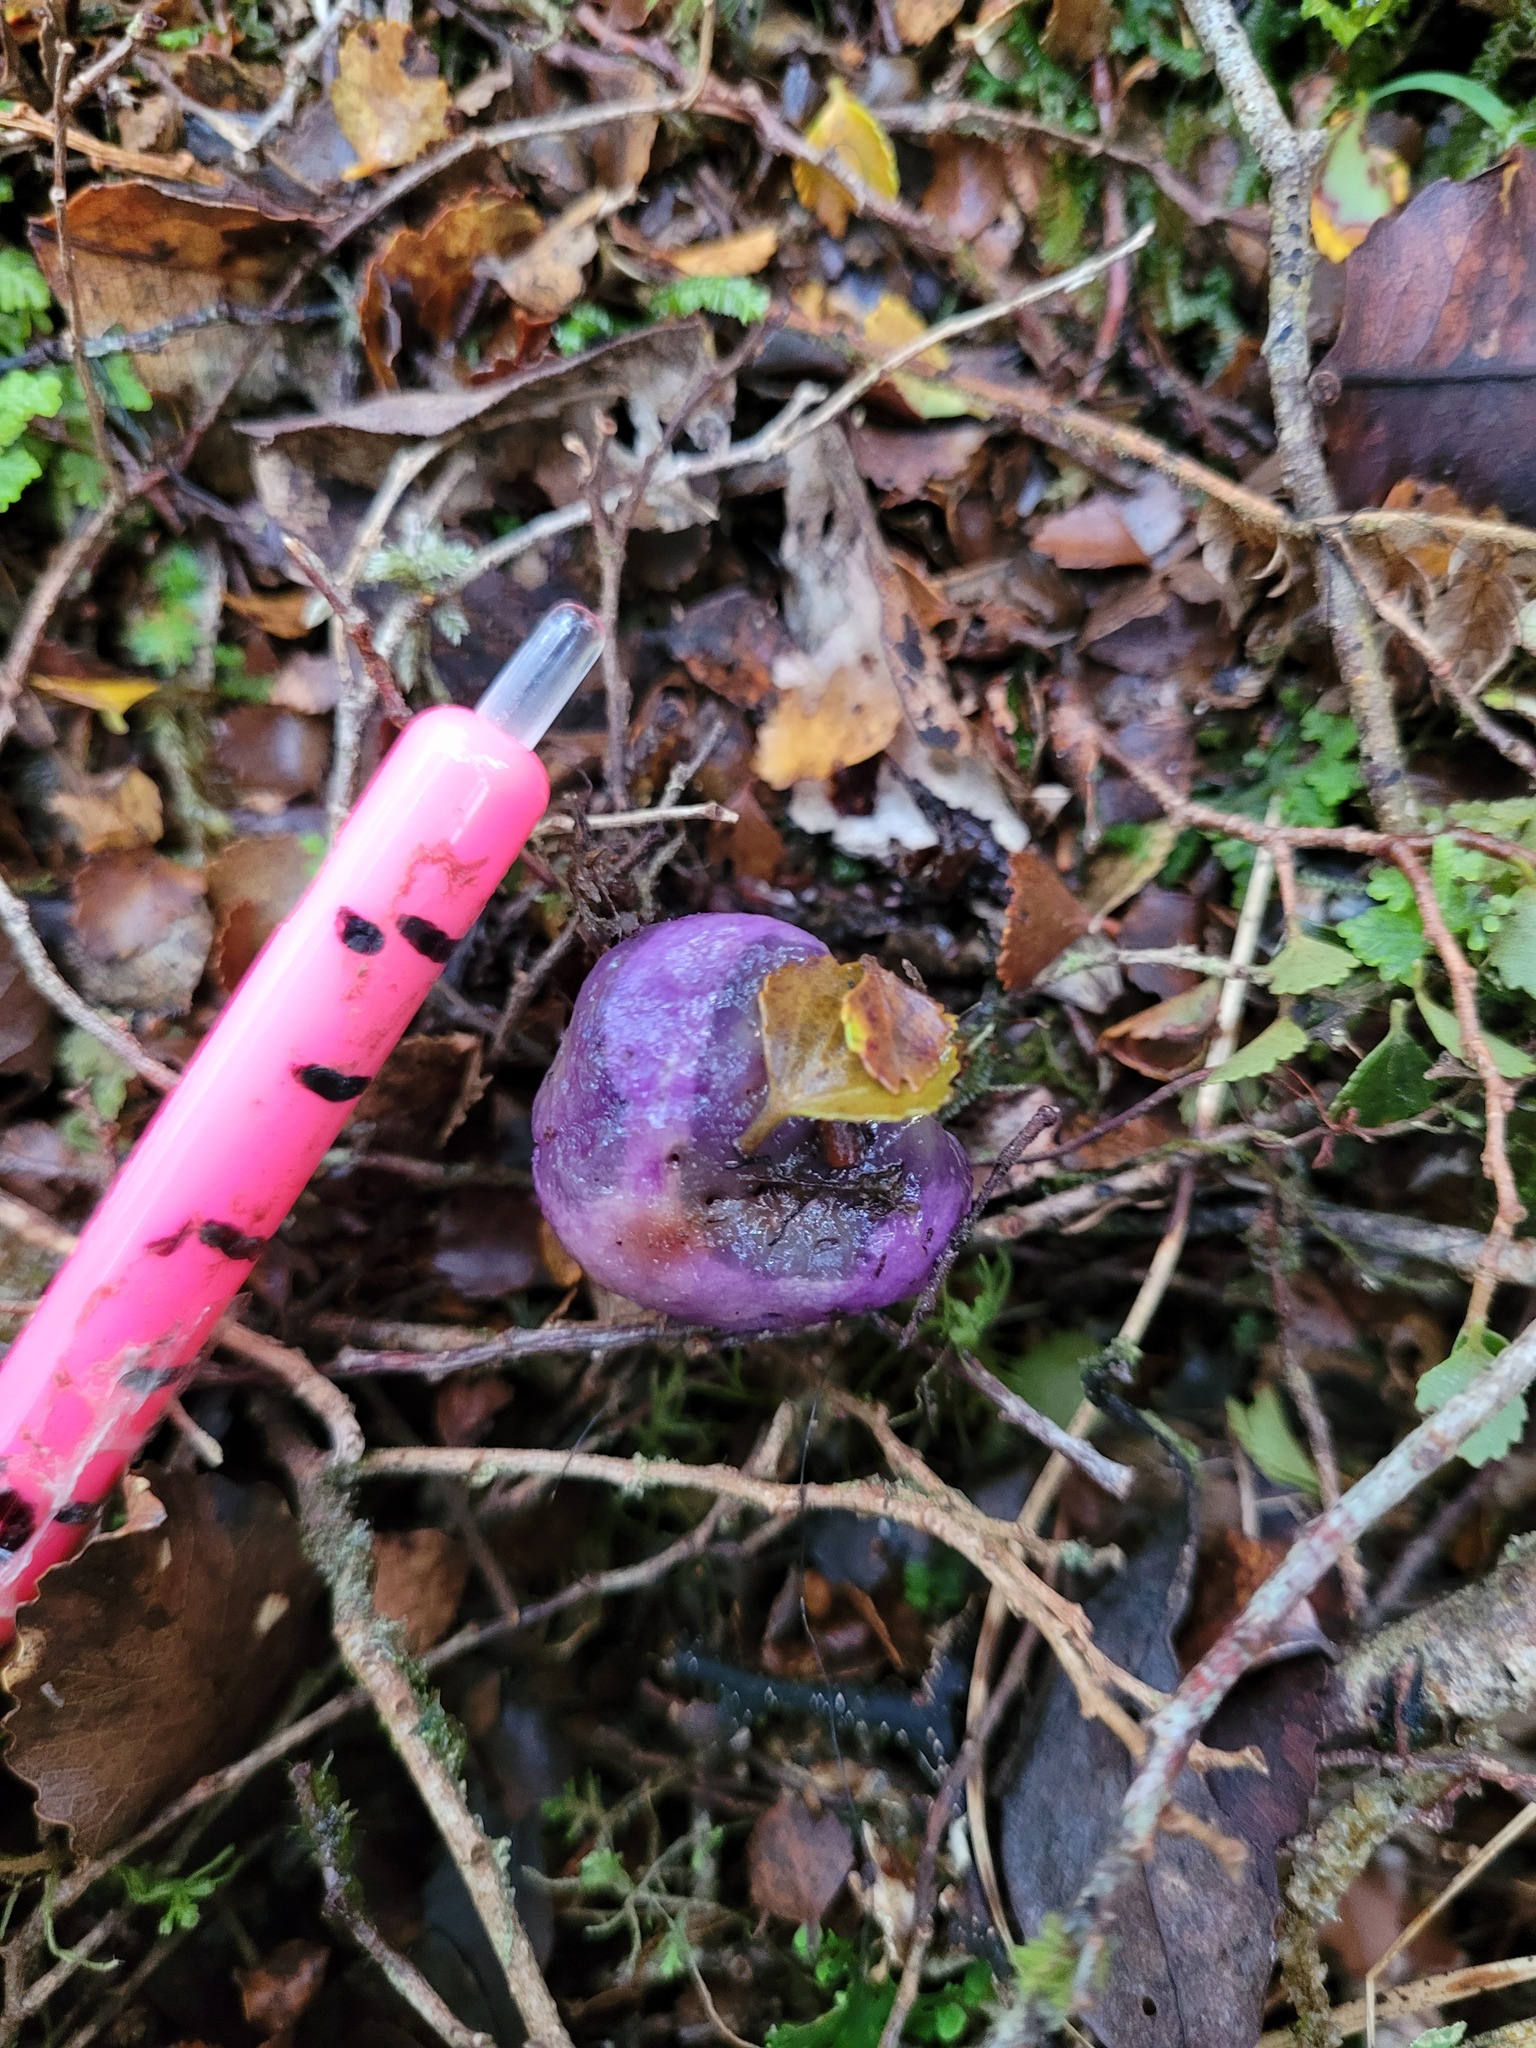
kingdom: Fungi
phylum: Basidiomycota
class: Agaricomycetes
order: Hysterangiales
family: Gallaceaceae
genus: Gallacea
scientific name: Gallacea scleroderma
